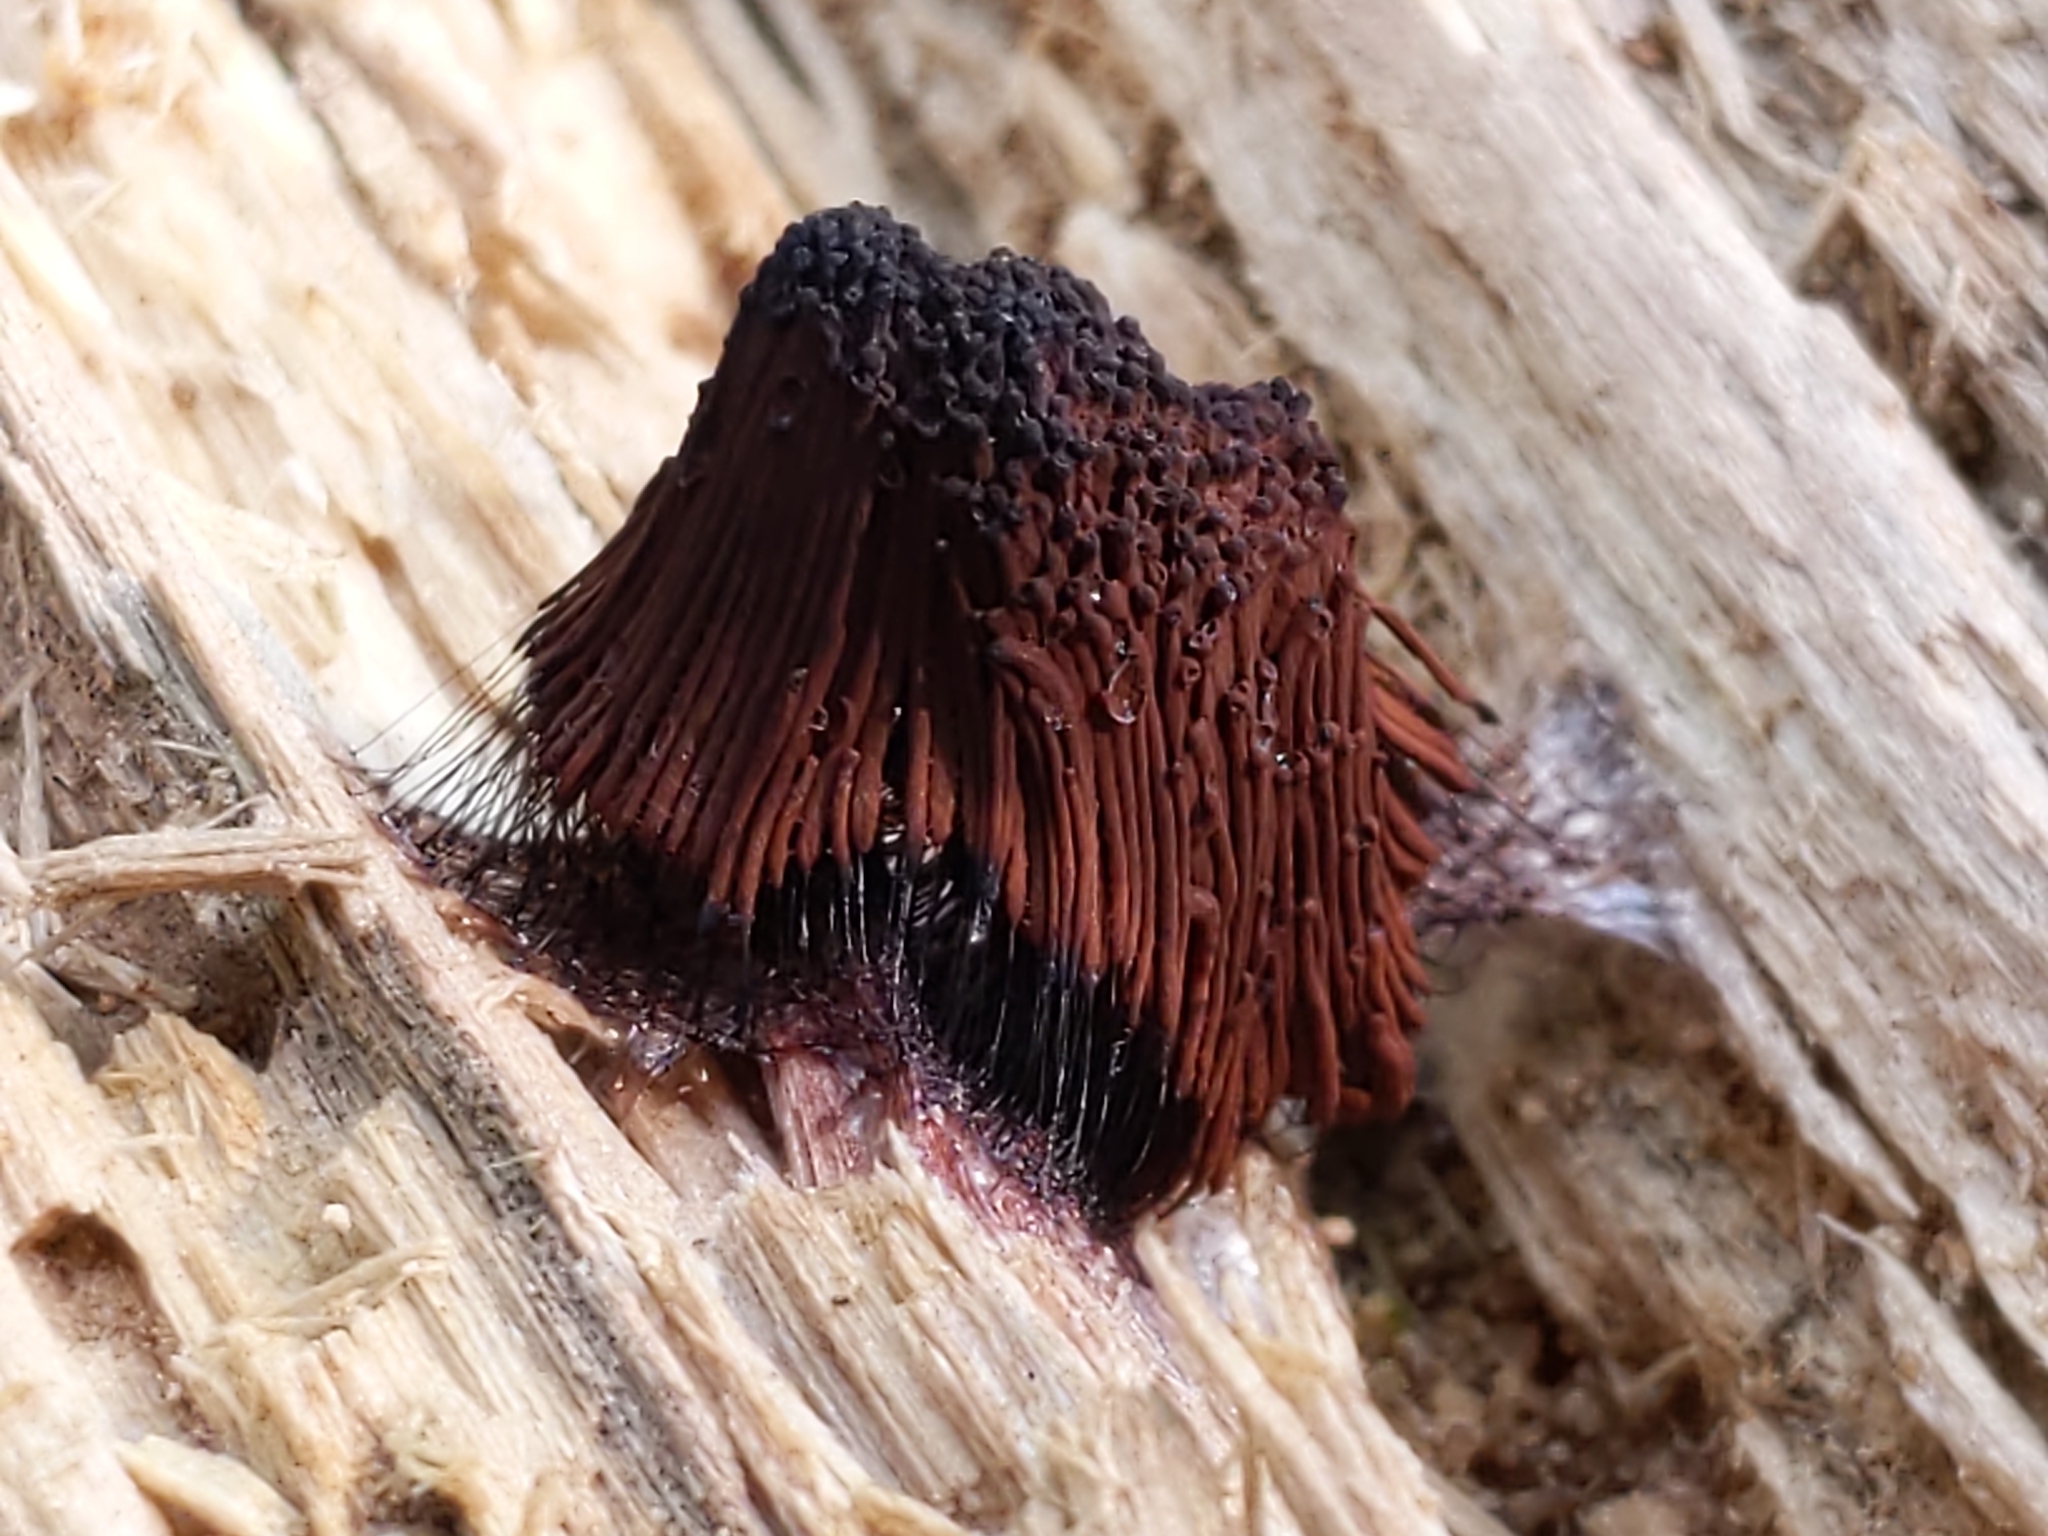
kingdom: Protozoa
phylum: Mycetozoa
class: Myxomycetes
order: Stemonitidales
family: Stemonitidaceae
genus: Stemonitis
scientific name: Stemonitis
